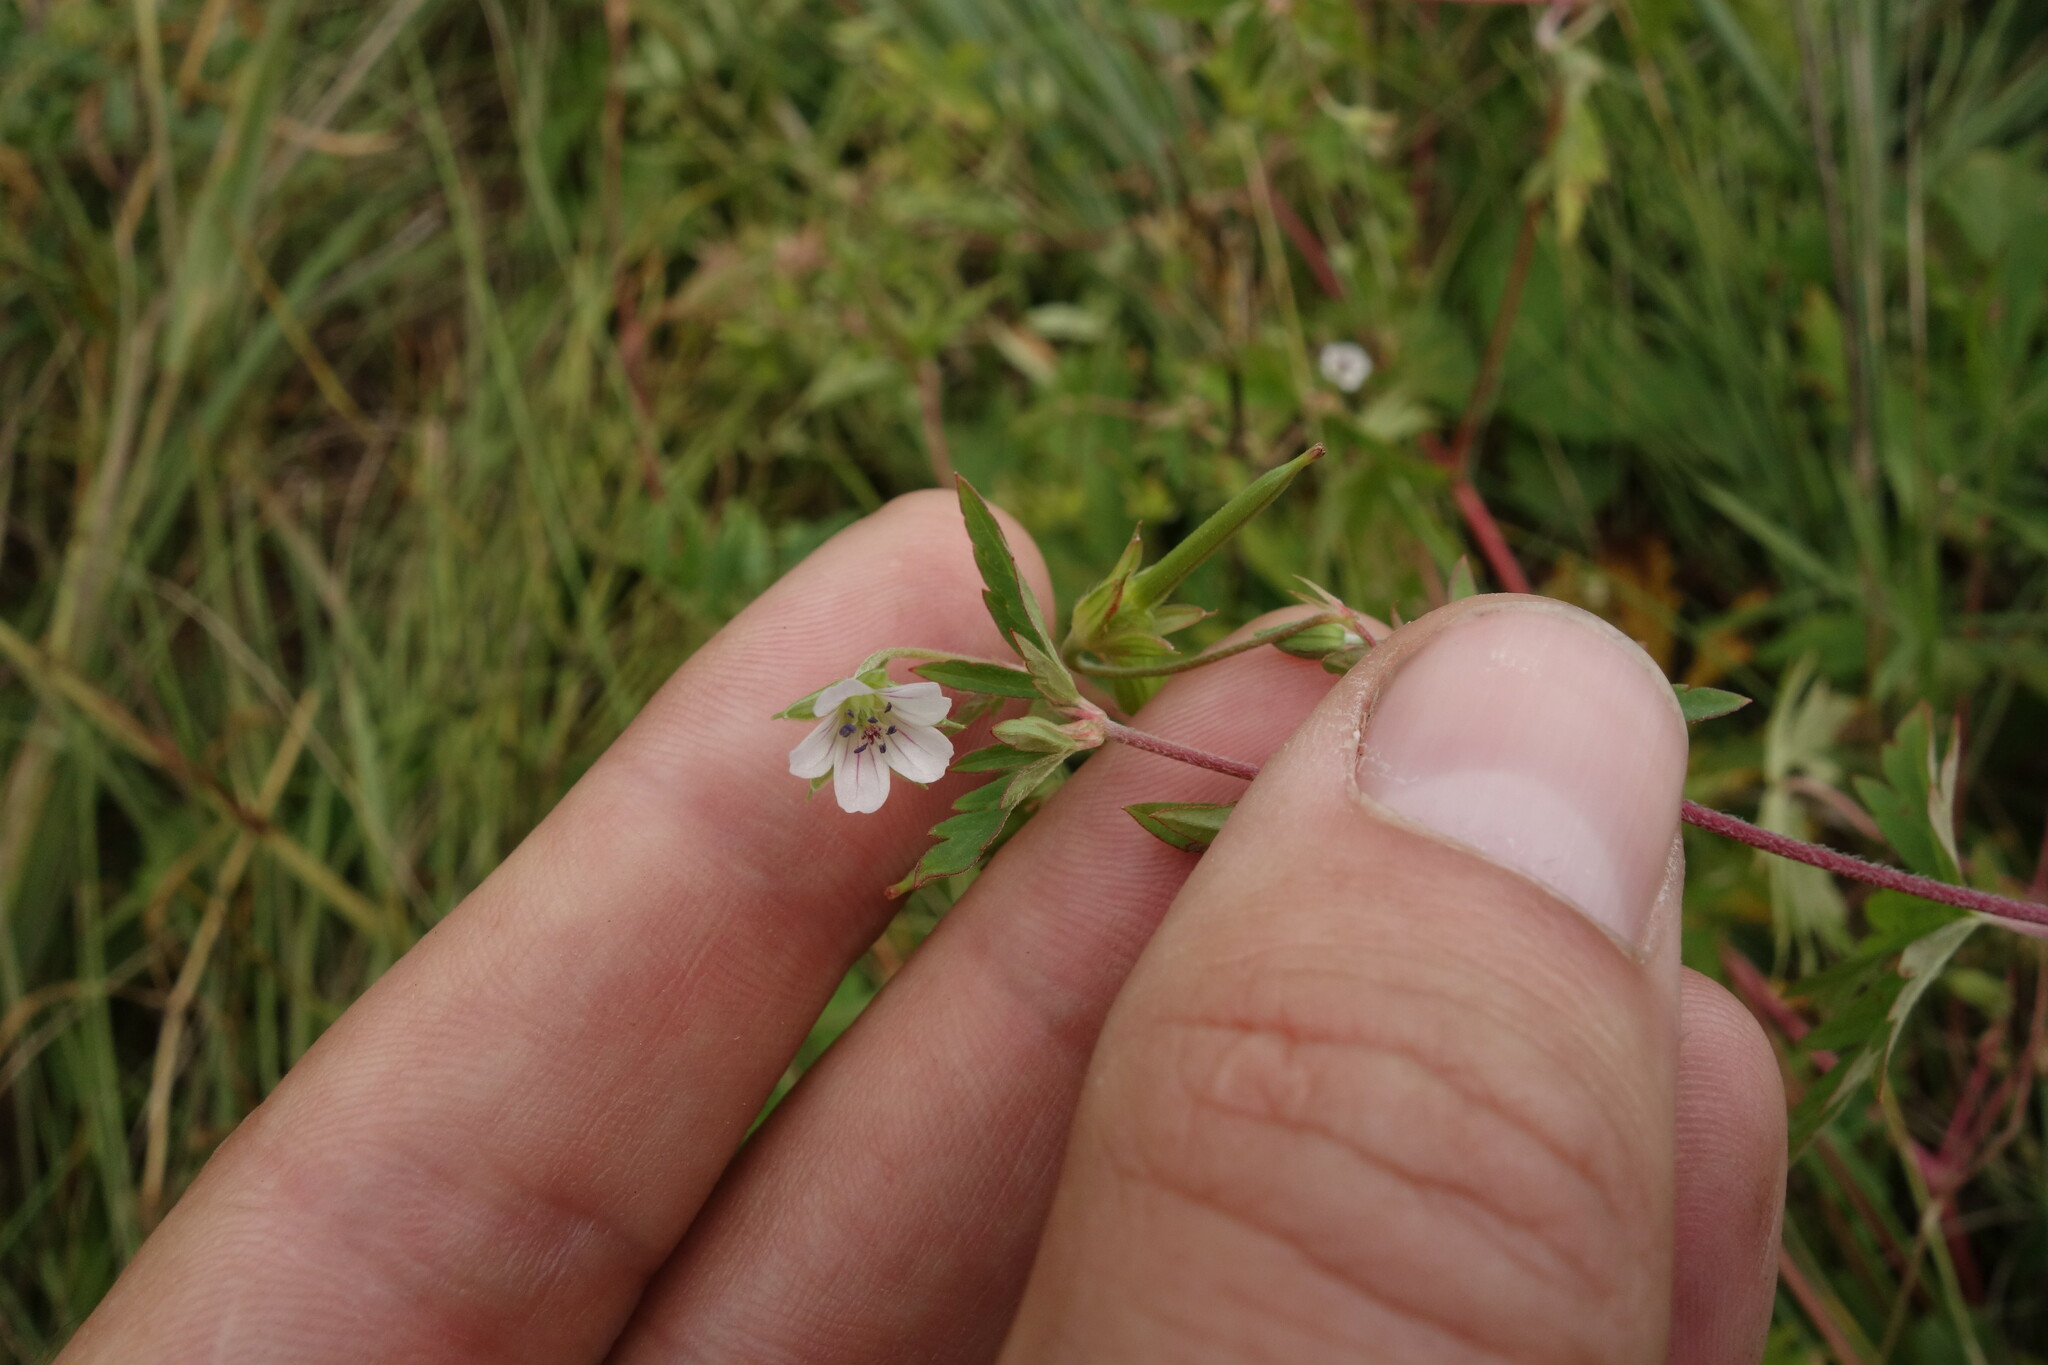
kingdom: Plantae
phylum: Tracheophyta
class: Magnoliopsida
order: Geraniales
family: Geraniaceae
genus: Geranium
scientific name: Geranium sibiricum
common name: Siberian crane's-bill
